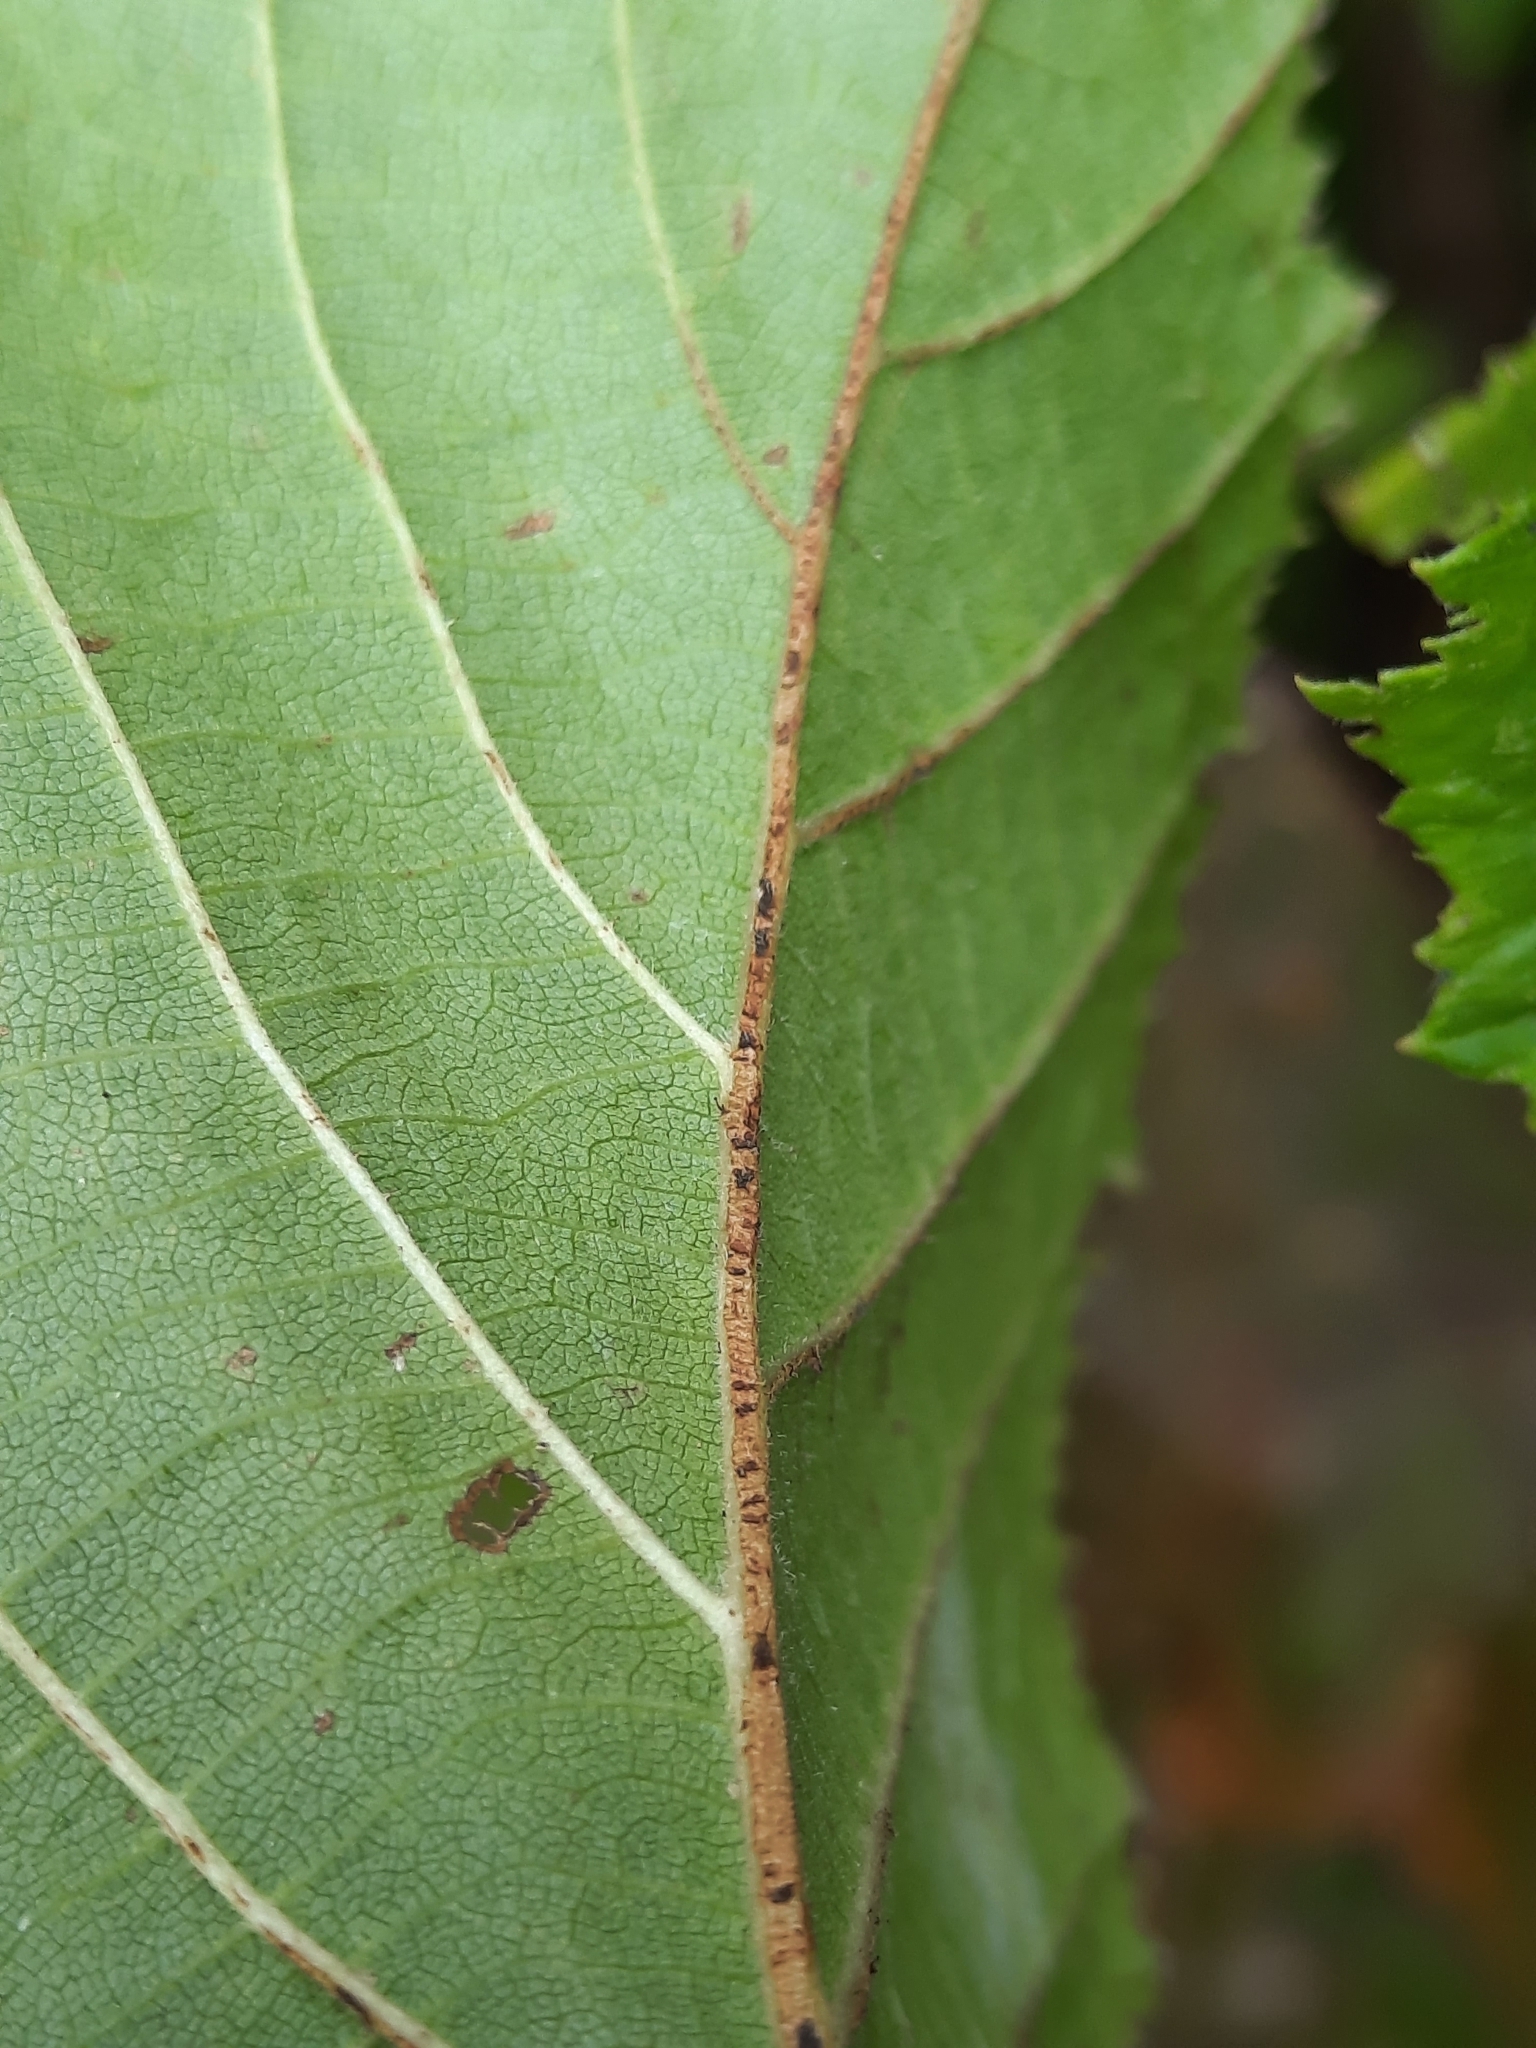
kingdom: Plantae
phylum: Tracheophyta
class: Magnoliopsida
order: Fagales
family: Betulaceae
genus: Corylus
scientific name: Corylus americana
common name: American hazel
